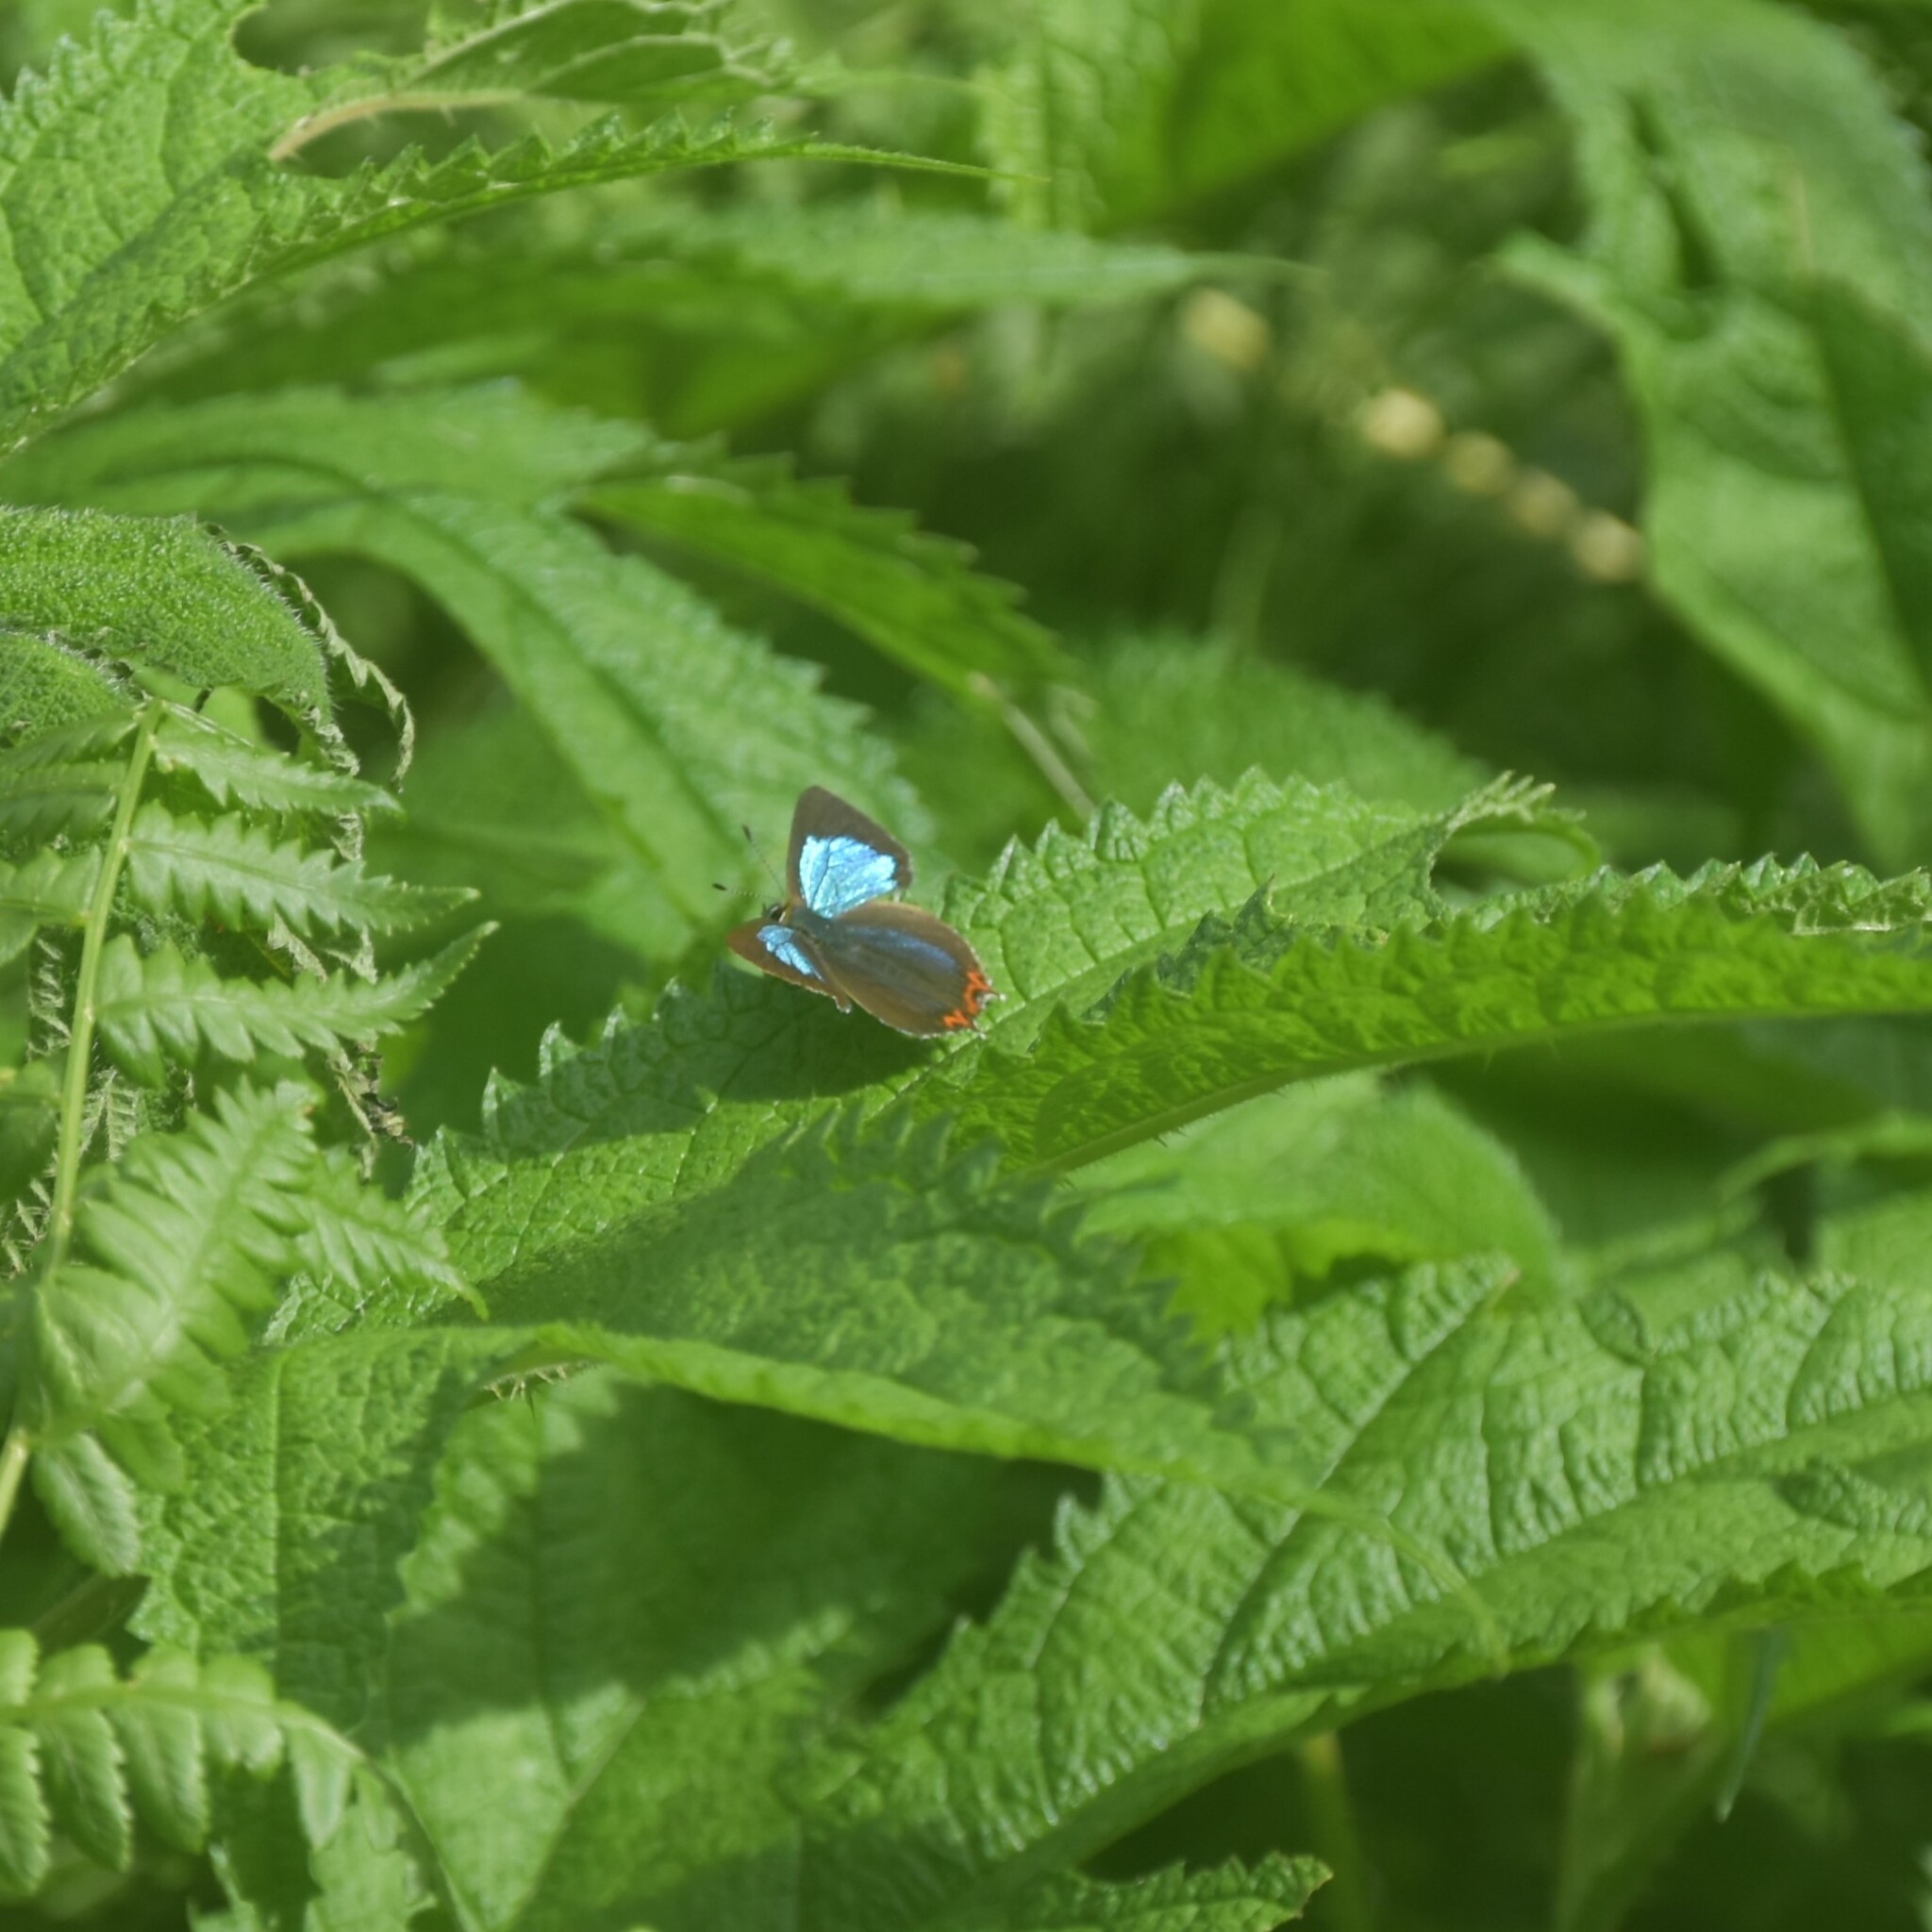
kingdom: Animalia
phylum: Arthropoda
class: Insecta
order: Lepidoptera
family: Lycaenidae
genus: Heliophorus
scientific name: Heliophorus
